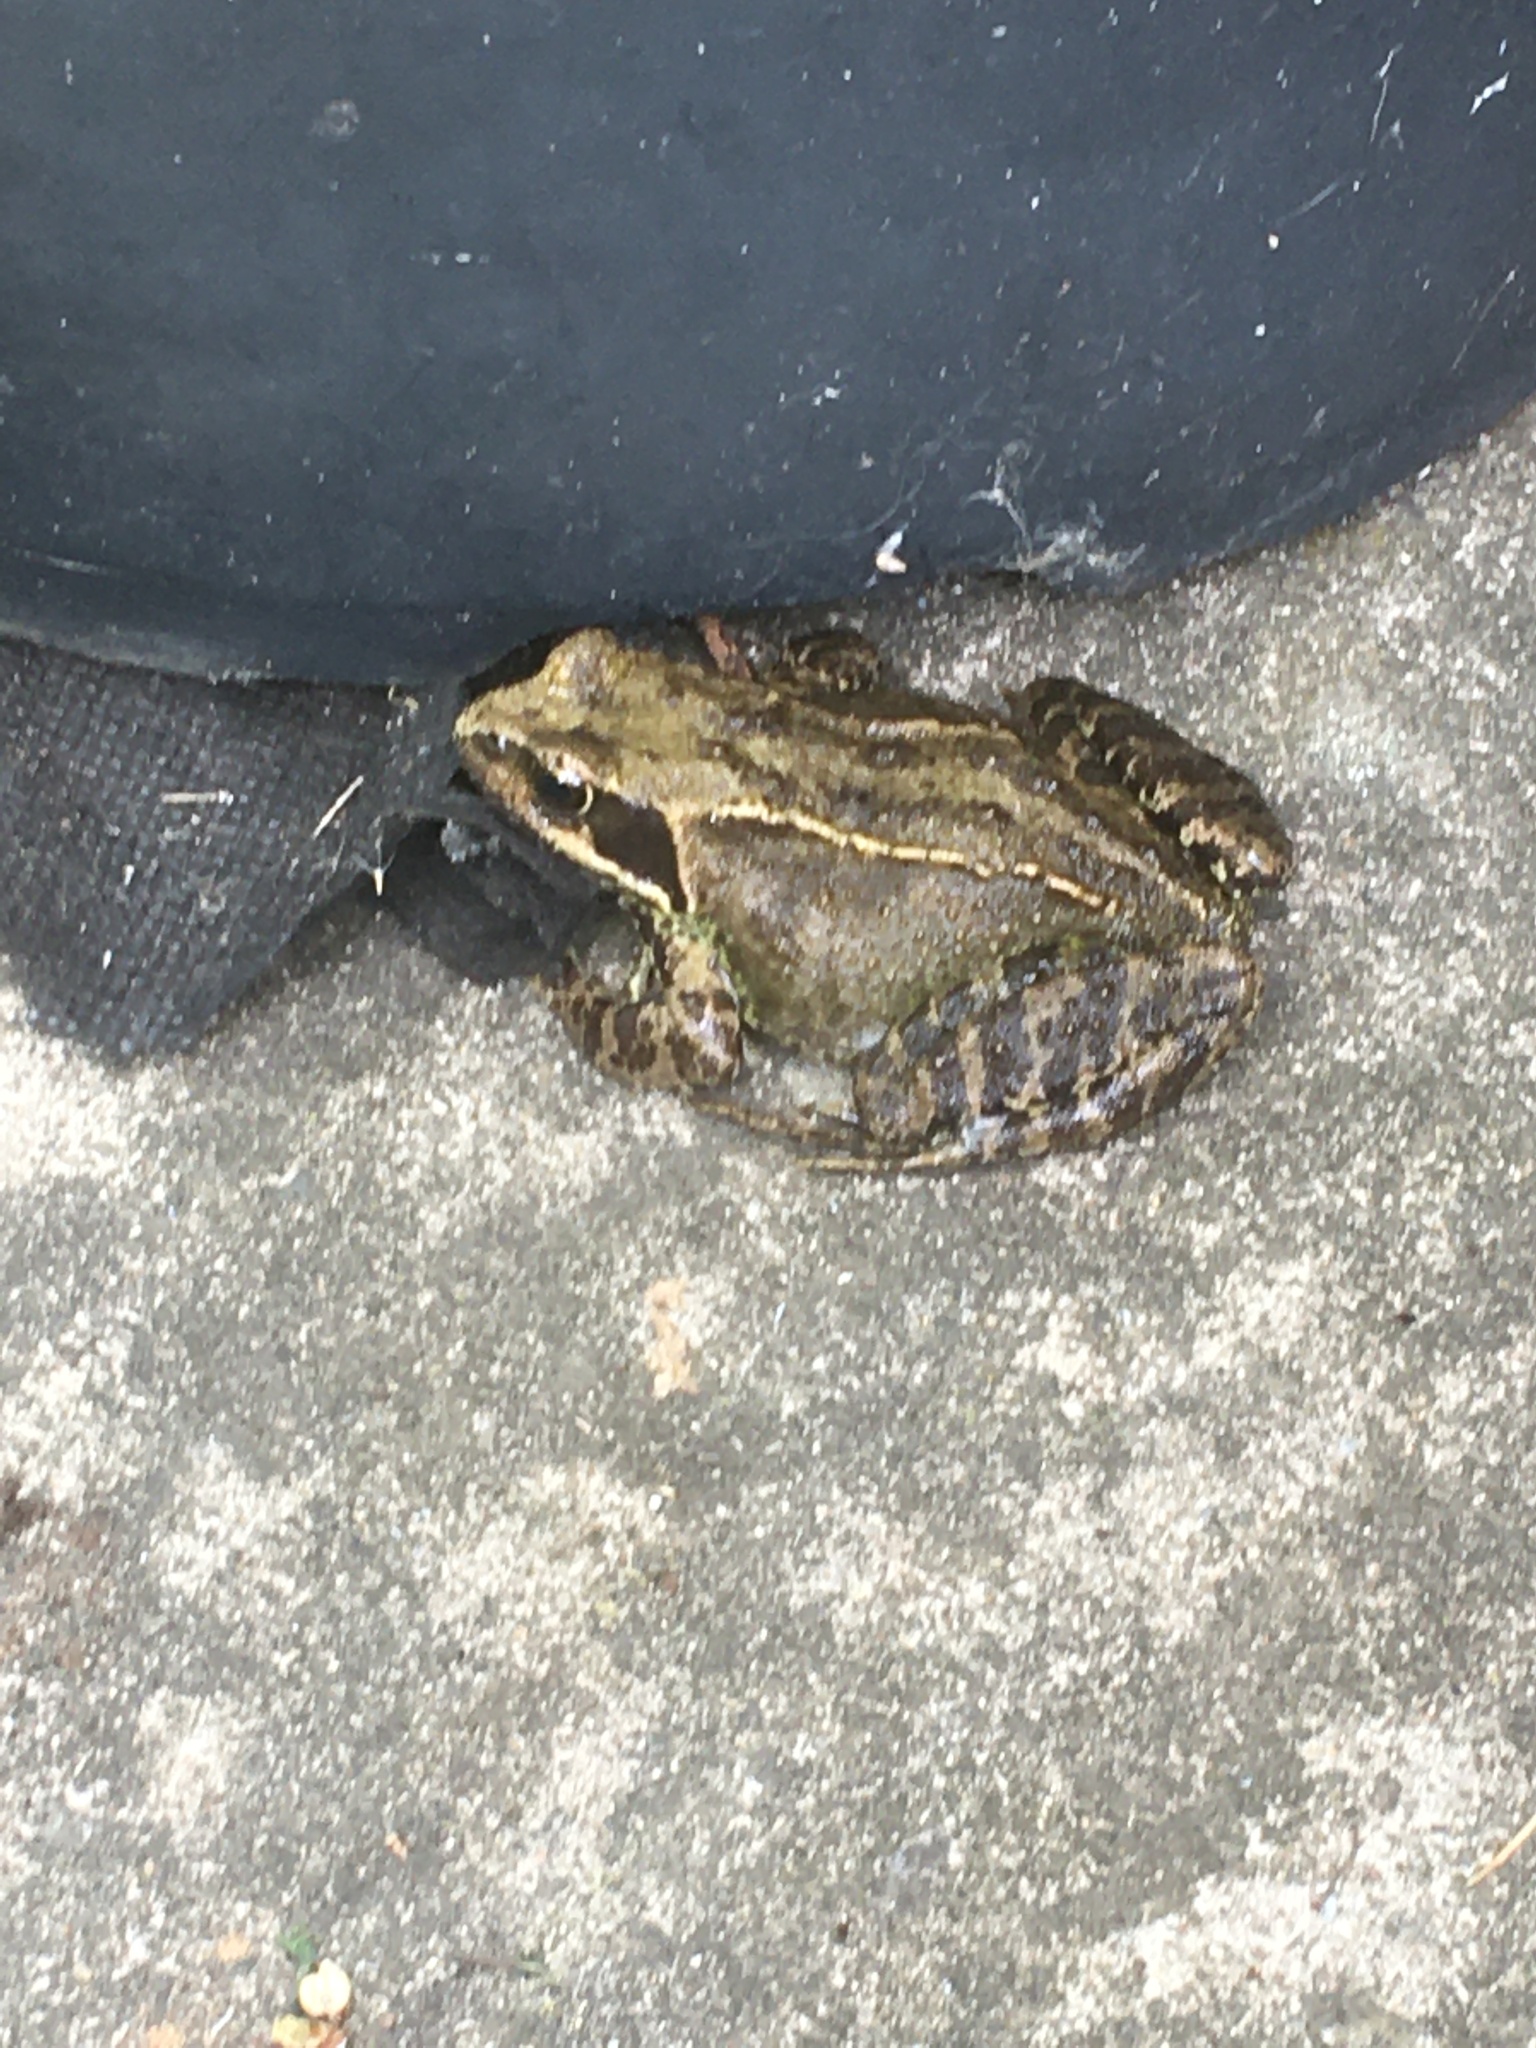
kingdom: Animalia
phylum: Chordata
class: Amphibia
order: Anura
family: Ranidae
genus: Rana
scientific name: Rana temporaria
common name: Common frog
